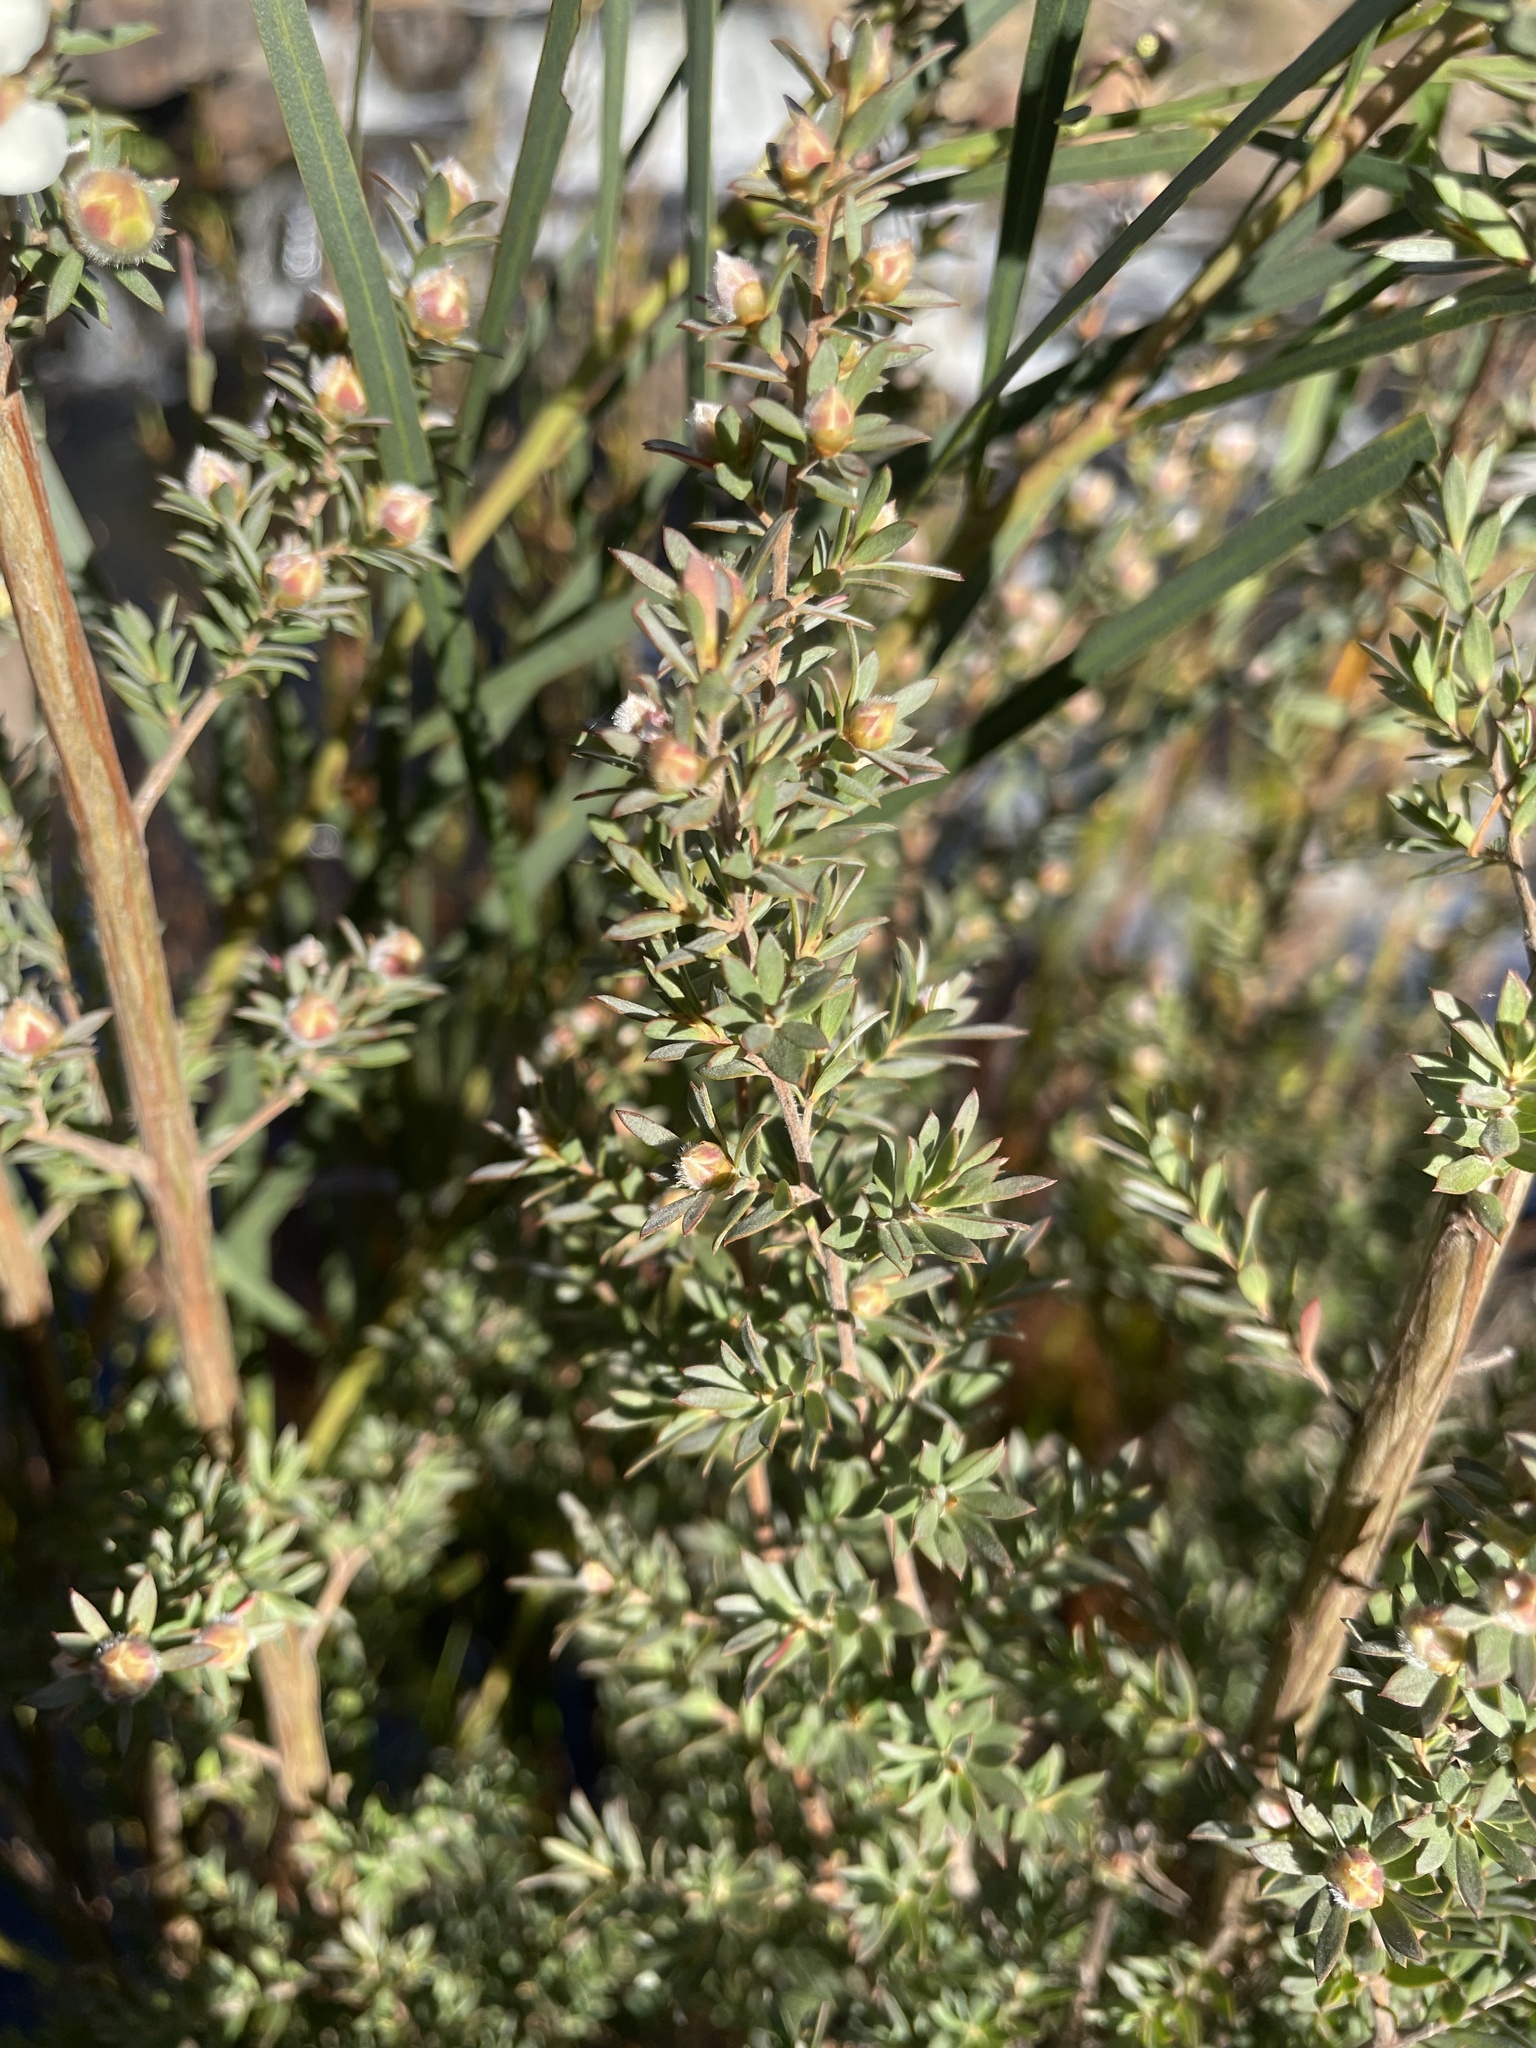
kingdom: Plantae
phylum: Tracheophyta
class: Magnoliopsida
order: Myrtales
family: Myrtaceae
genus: Leptospermum
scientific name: Leptospermum turbinatum
